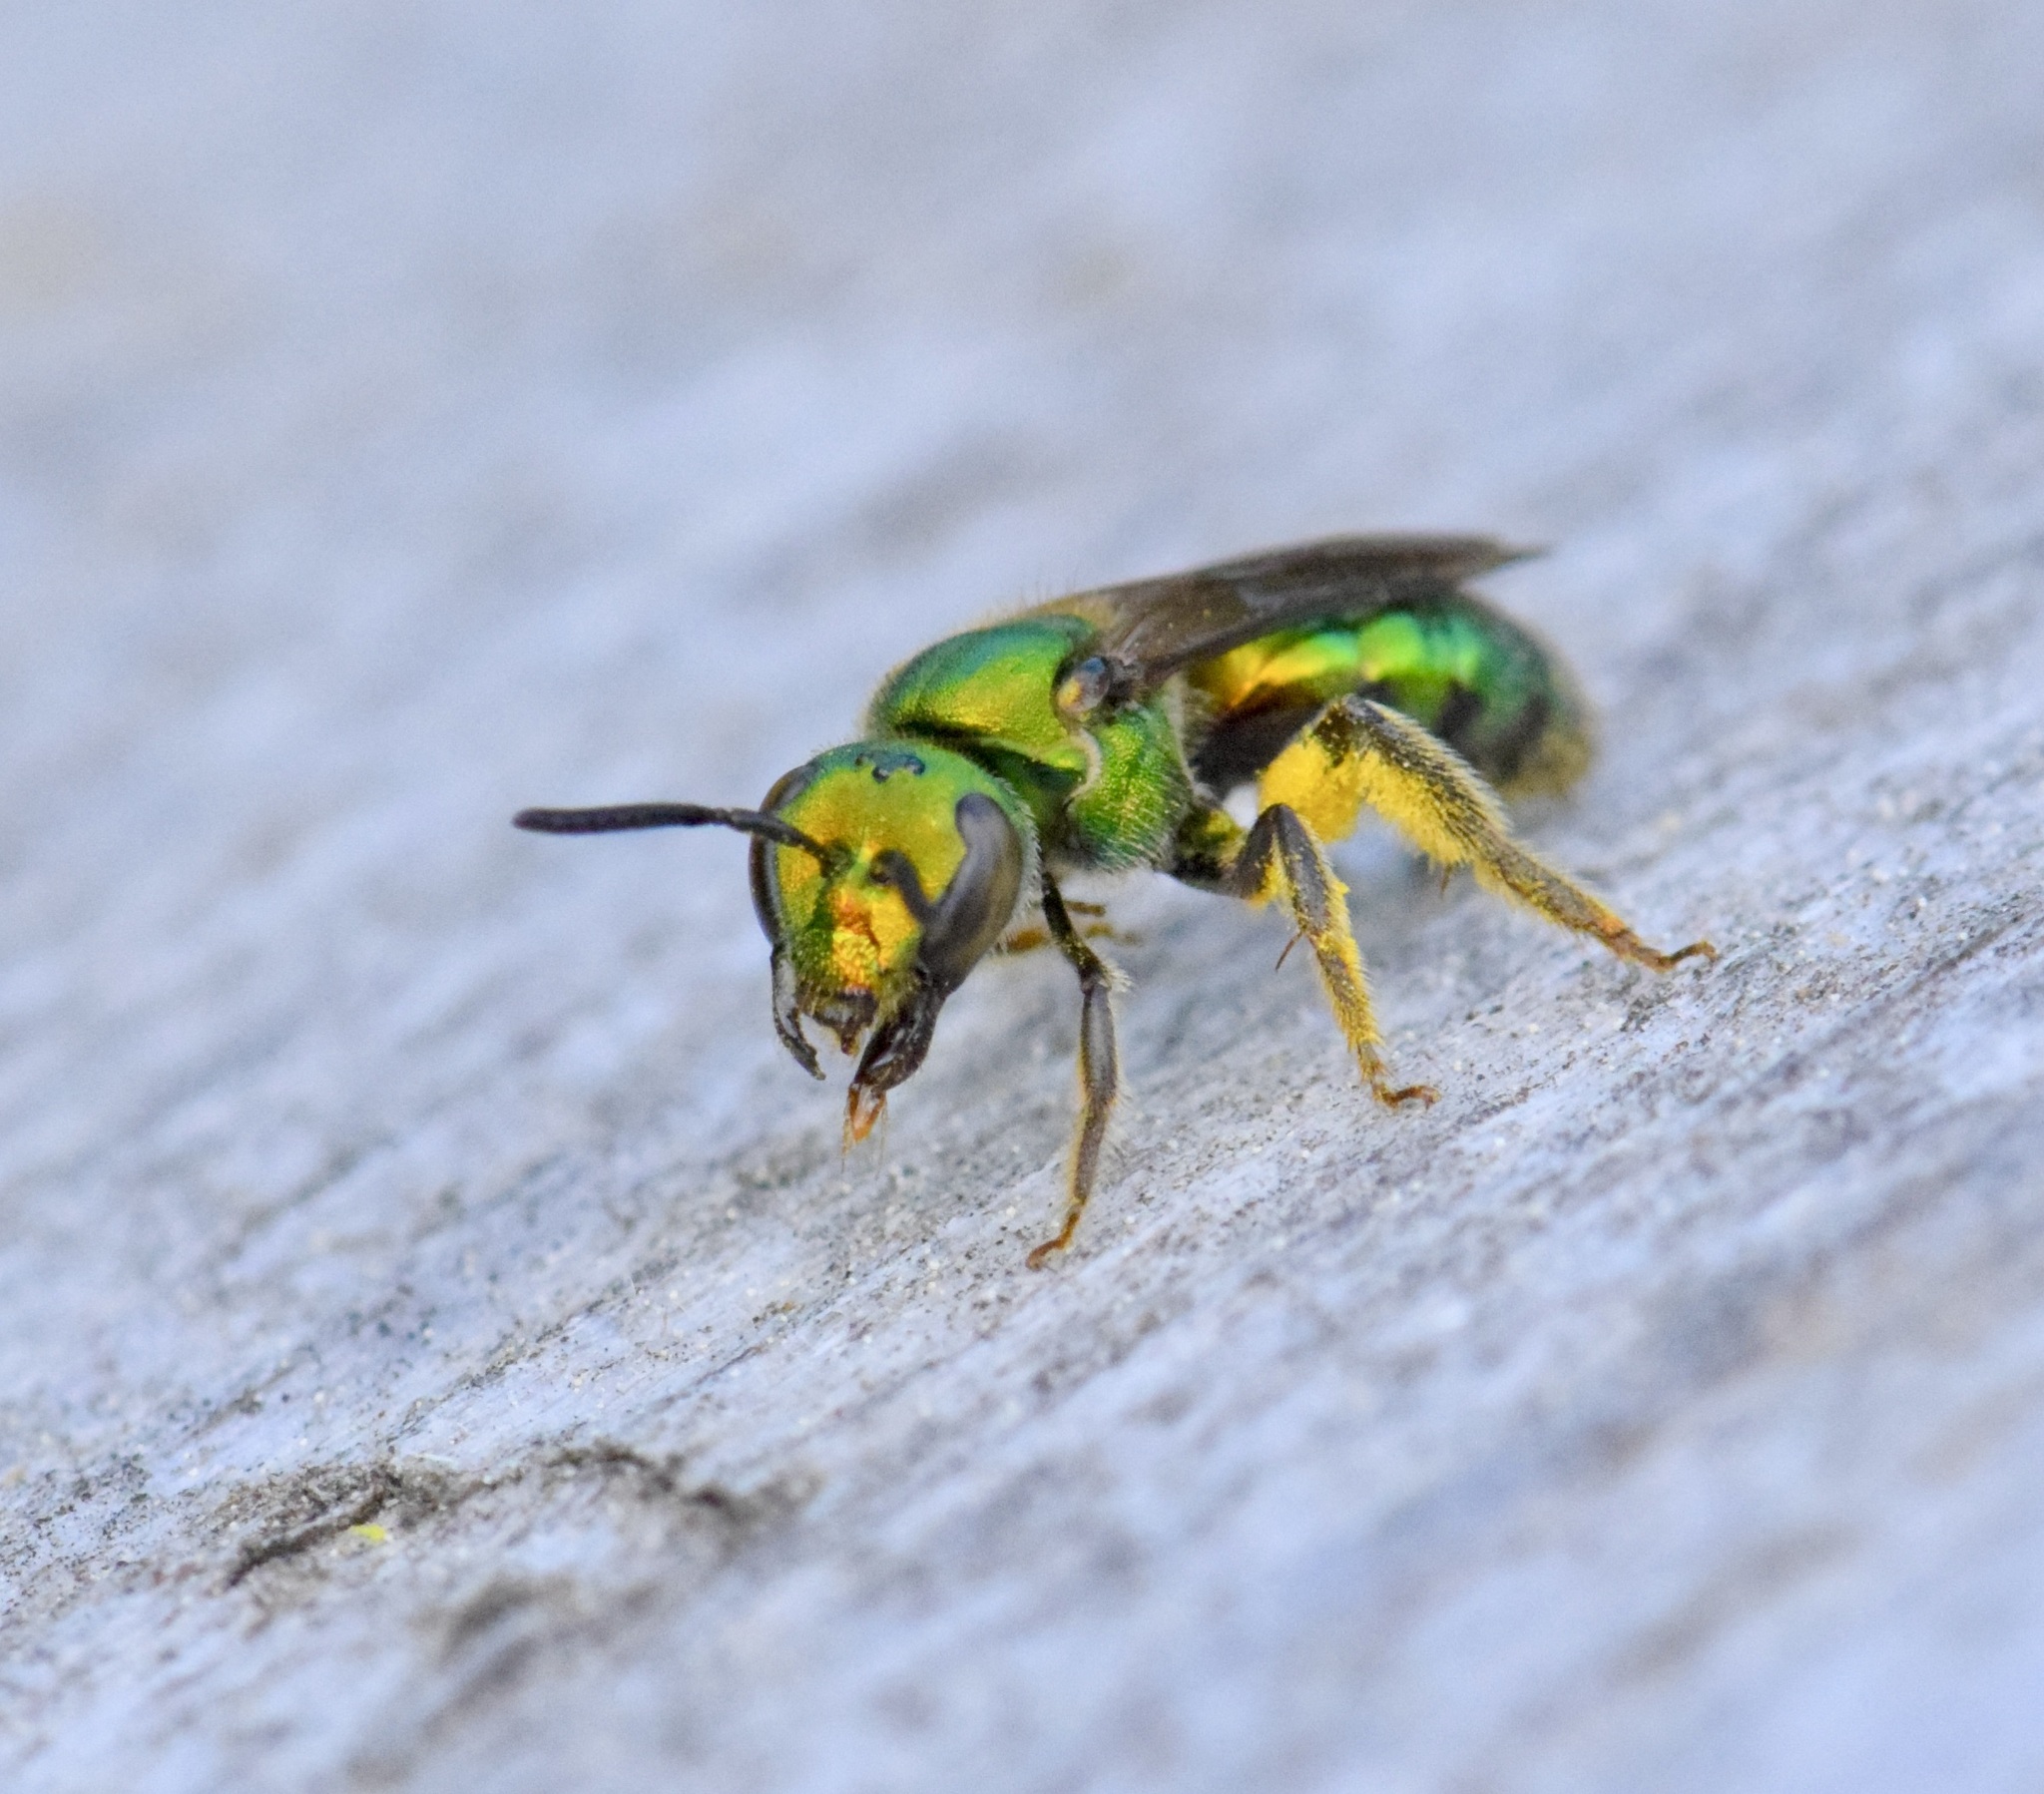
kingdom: Animalia
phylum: Arthropoda
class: Insecta
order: Hymenoptera
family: Halictidae
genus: Augochlora
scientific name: Augochlora pura
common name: Pure green sweat bee
